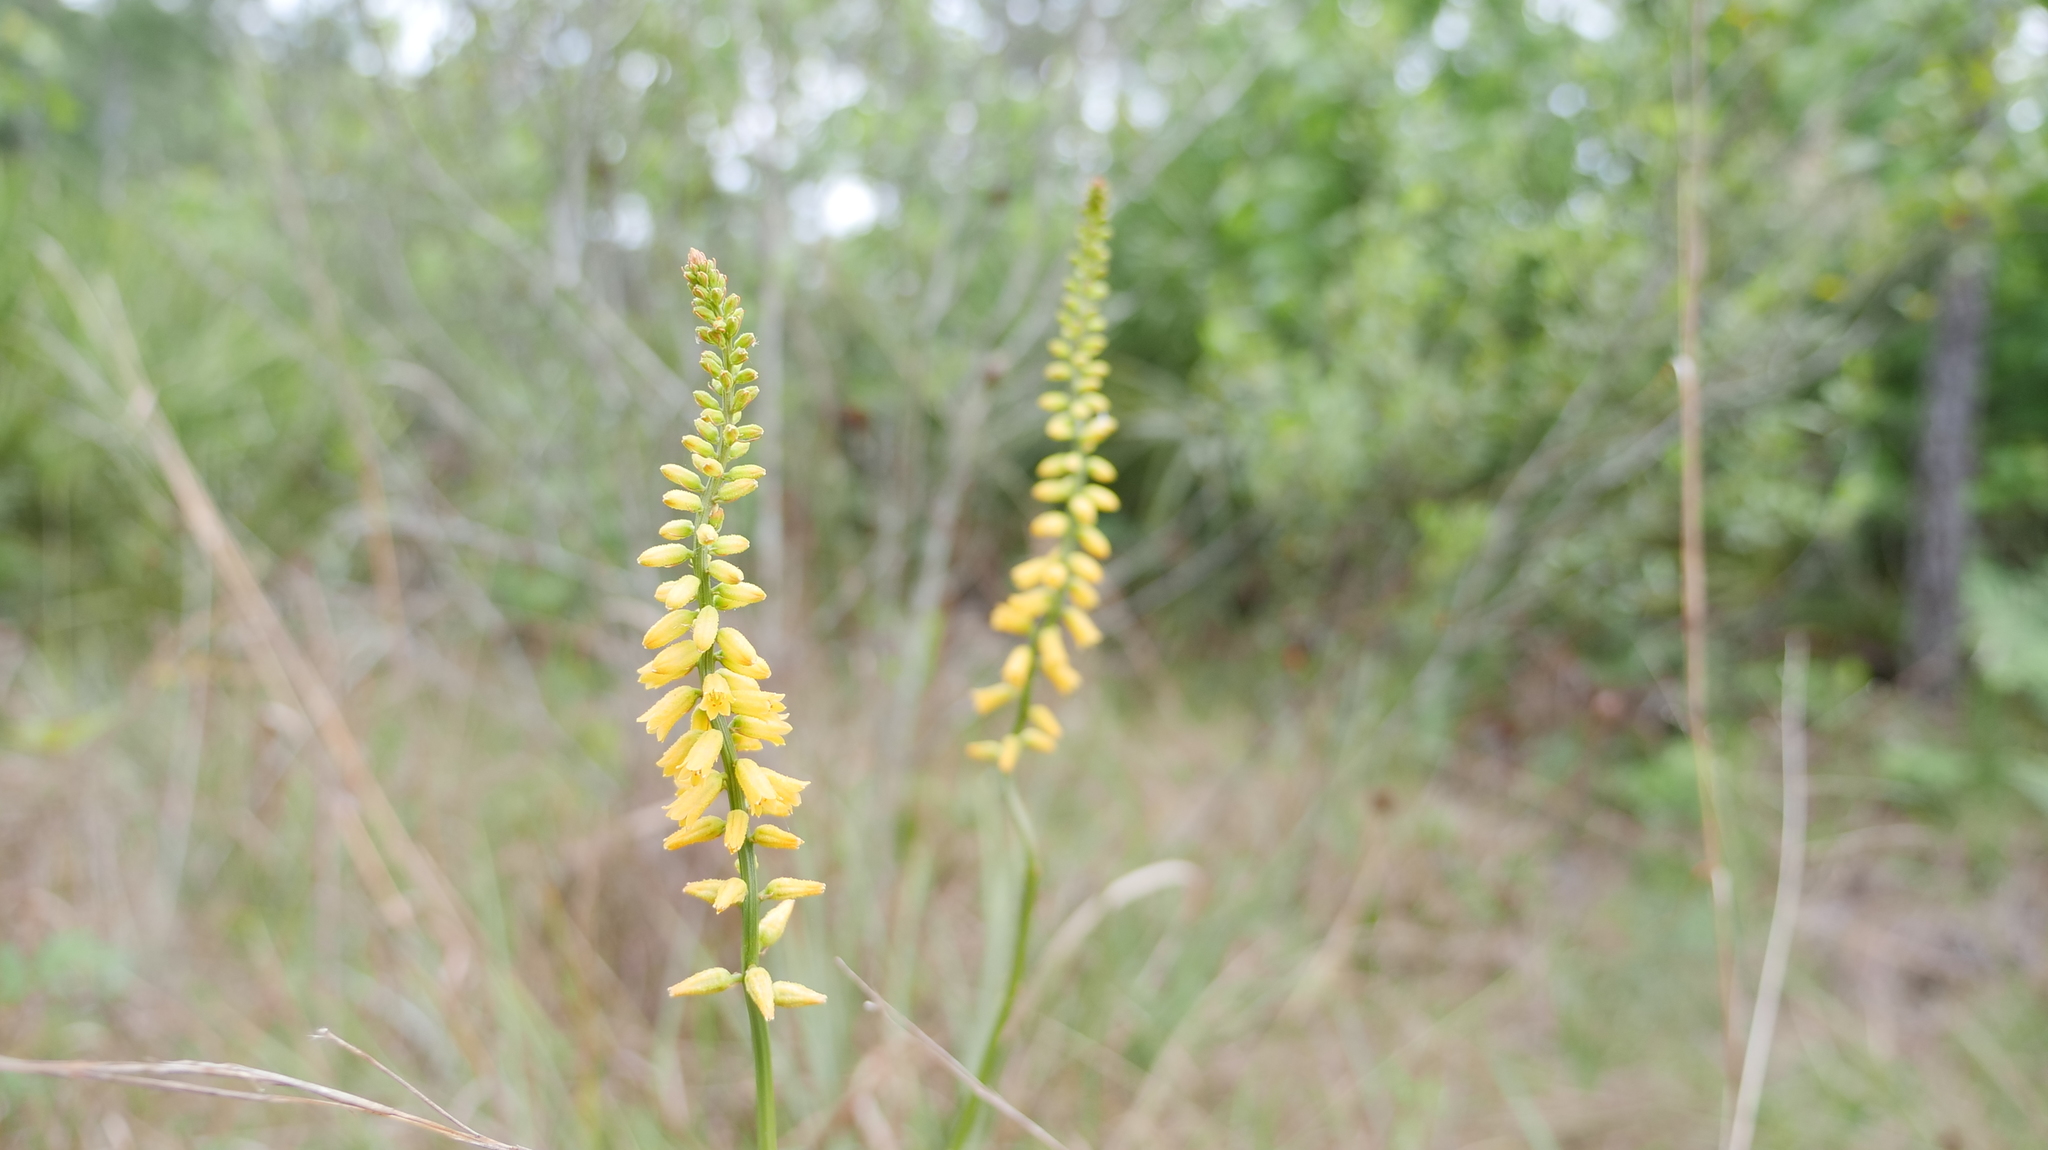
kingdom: Plantae
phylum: Tracheophyta
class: Liliopsida
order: Dioscoreales
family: Nartheciaceae
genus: Aletris
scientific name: Aletris lutea
